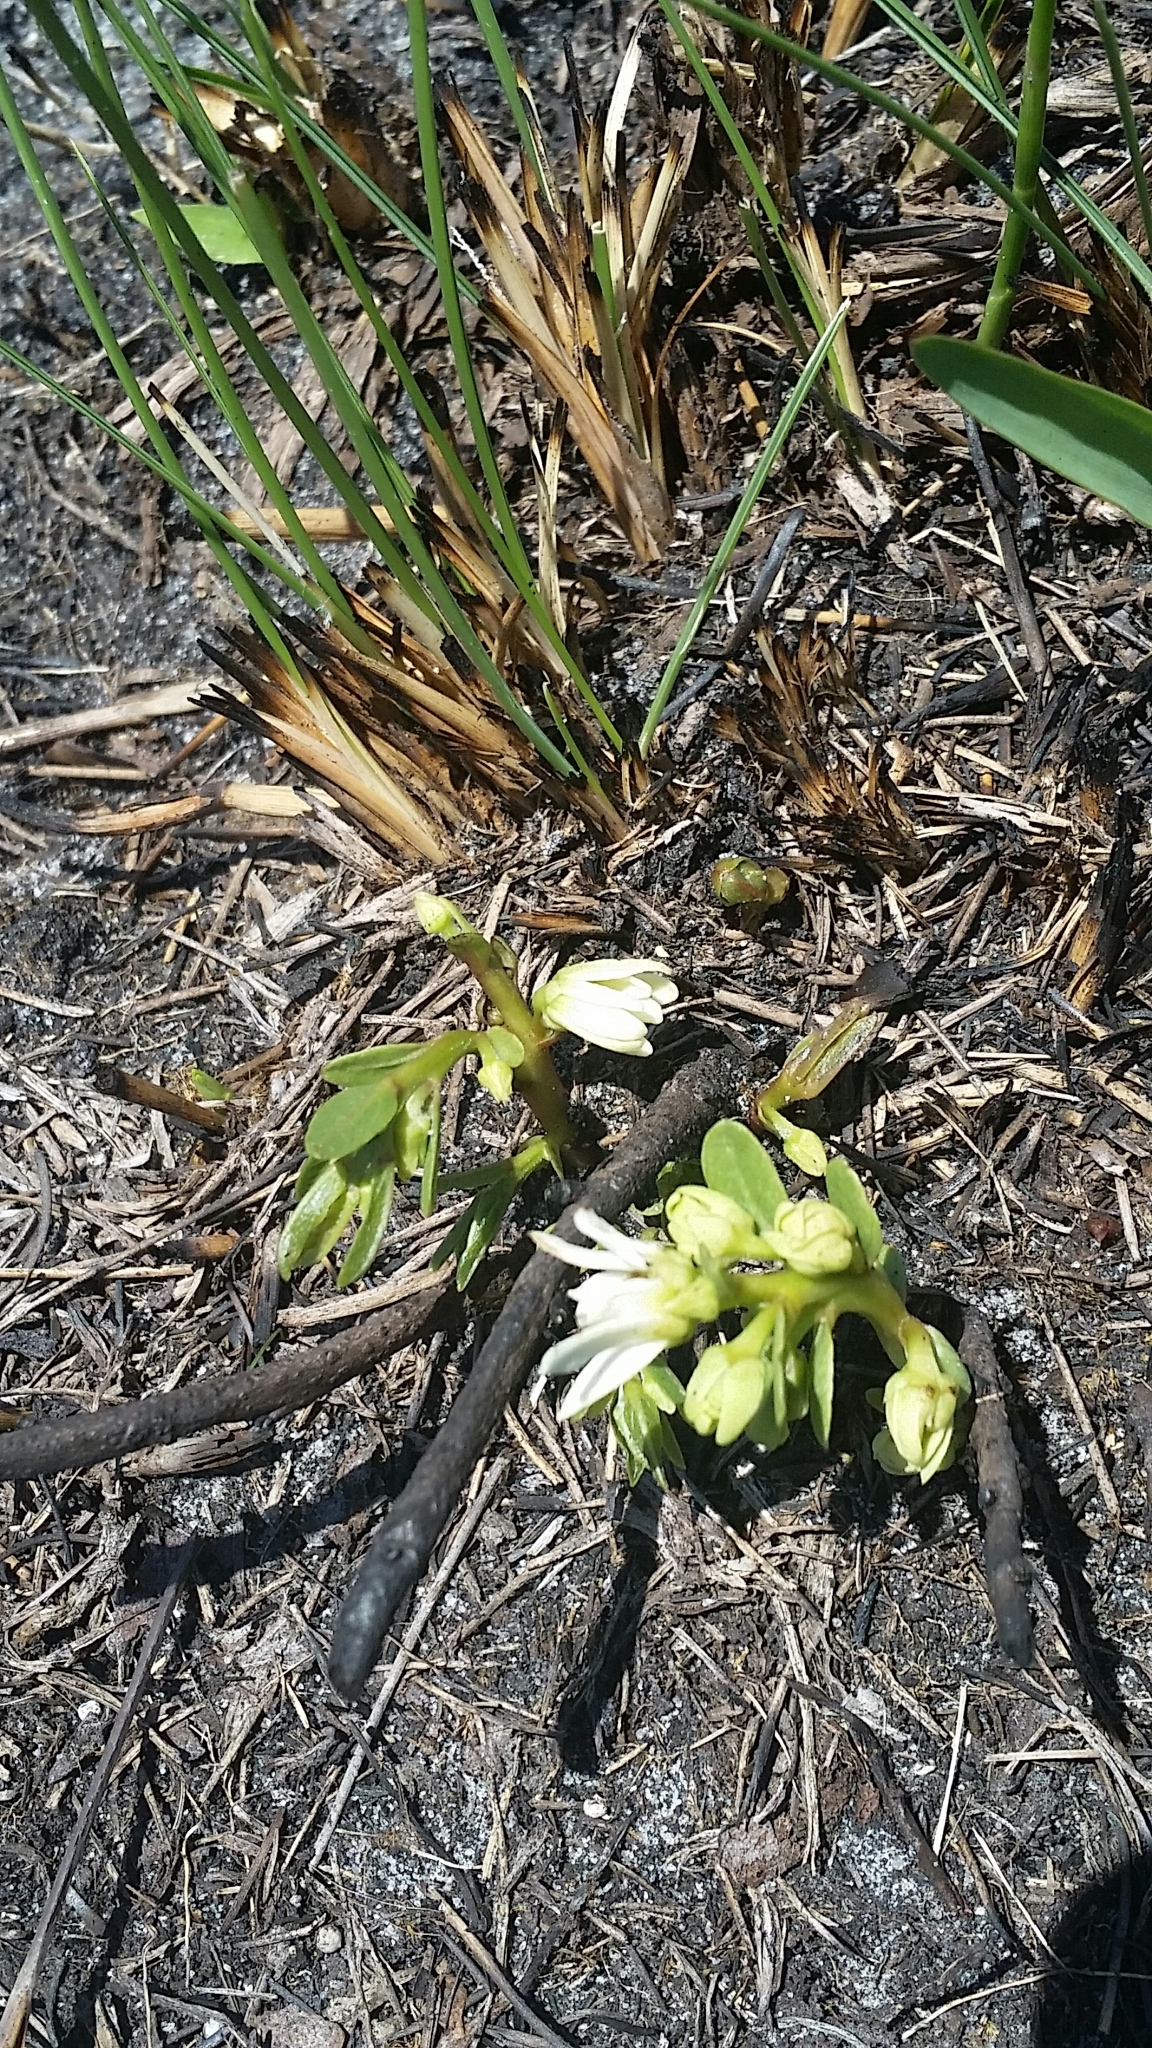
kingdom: Plantae
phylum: Tracheophyta
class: Magnoliopsida
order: Magnoliales
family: Annonaceae
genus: Asimina
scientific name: Asimina pulchella
